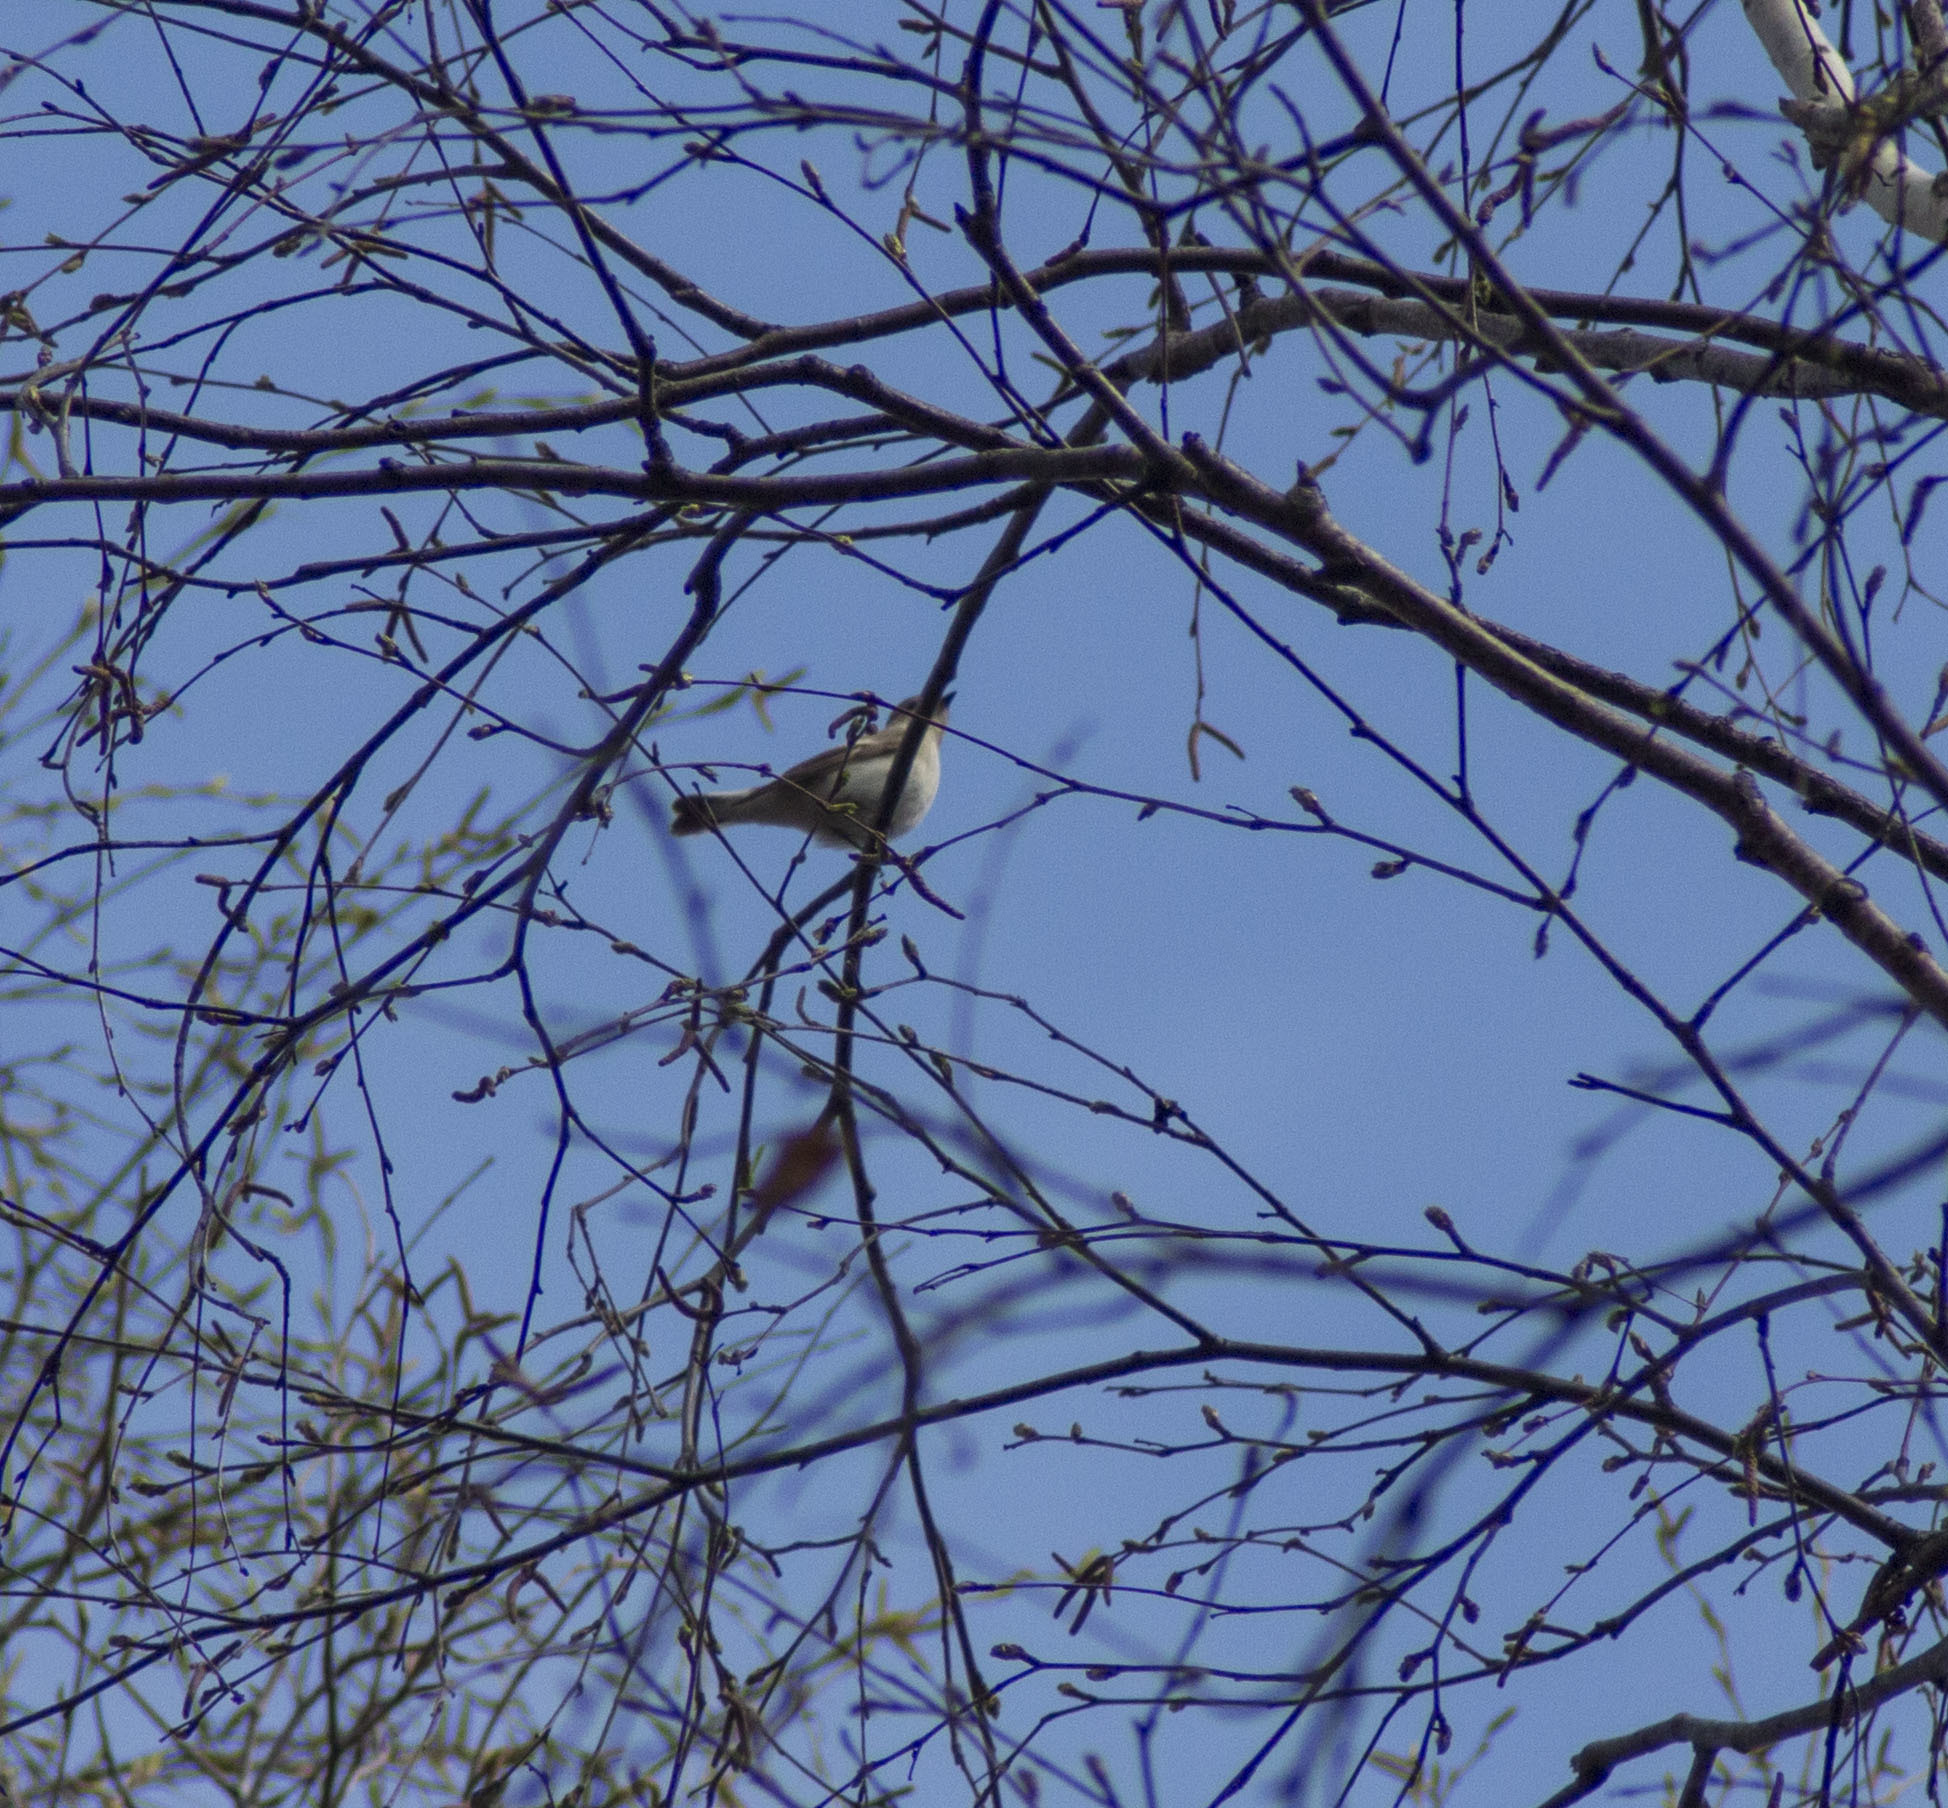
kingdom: Animalia
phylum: Chordata
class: Aves
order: Passeriformes
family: Muscicapidae
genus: Ficedula
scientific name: Ficedula hypoleuca
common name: European pied flycatcher
